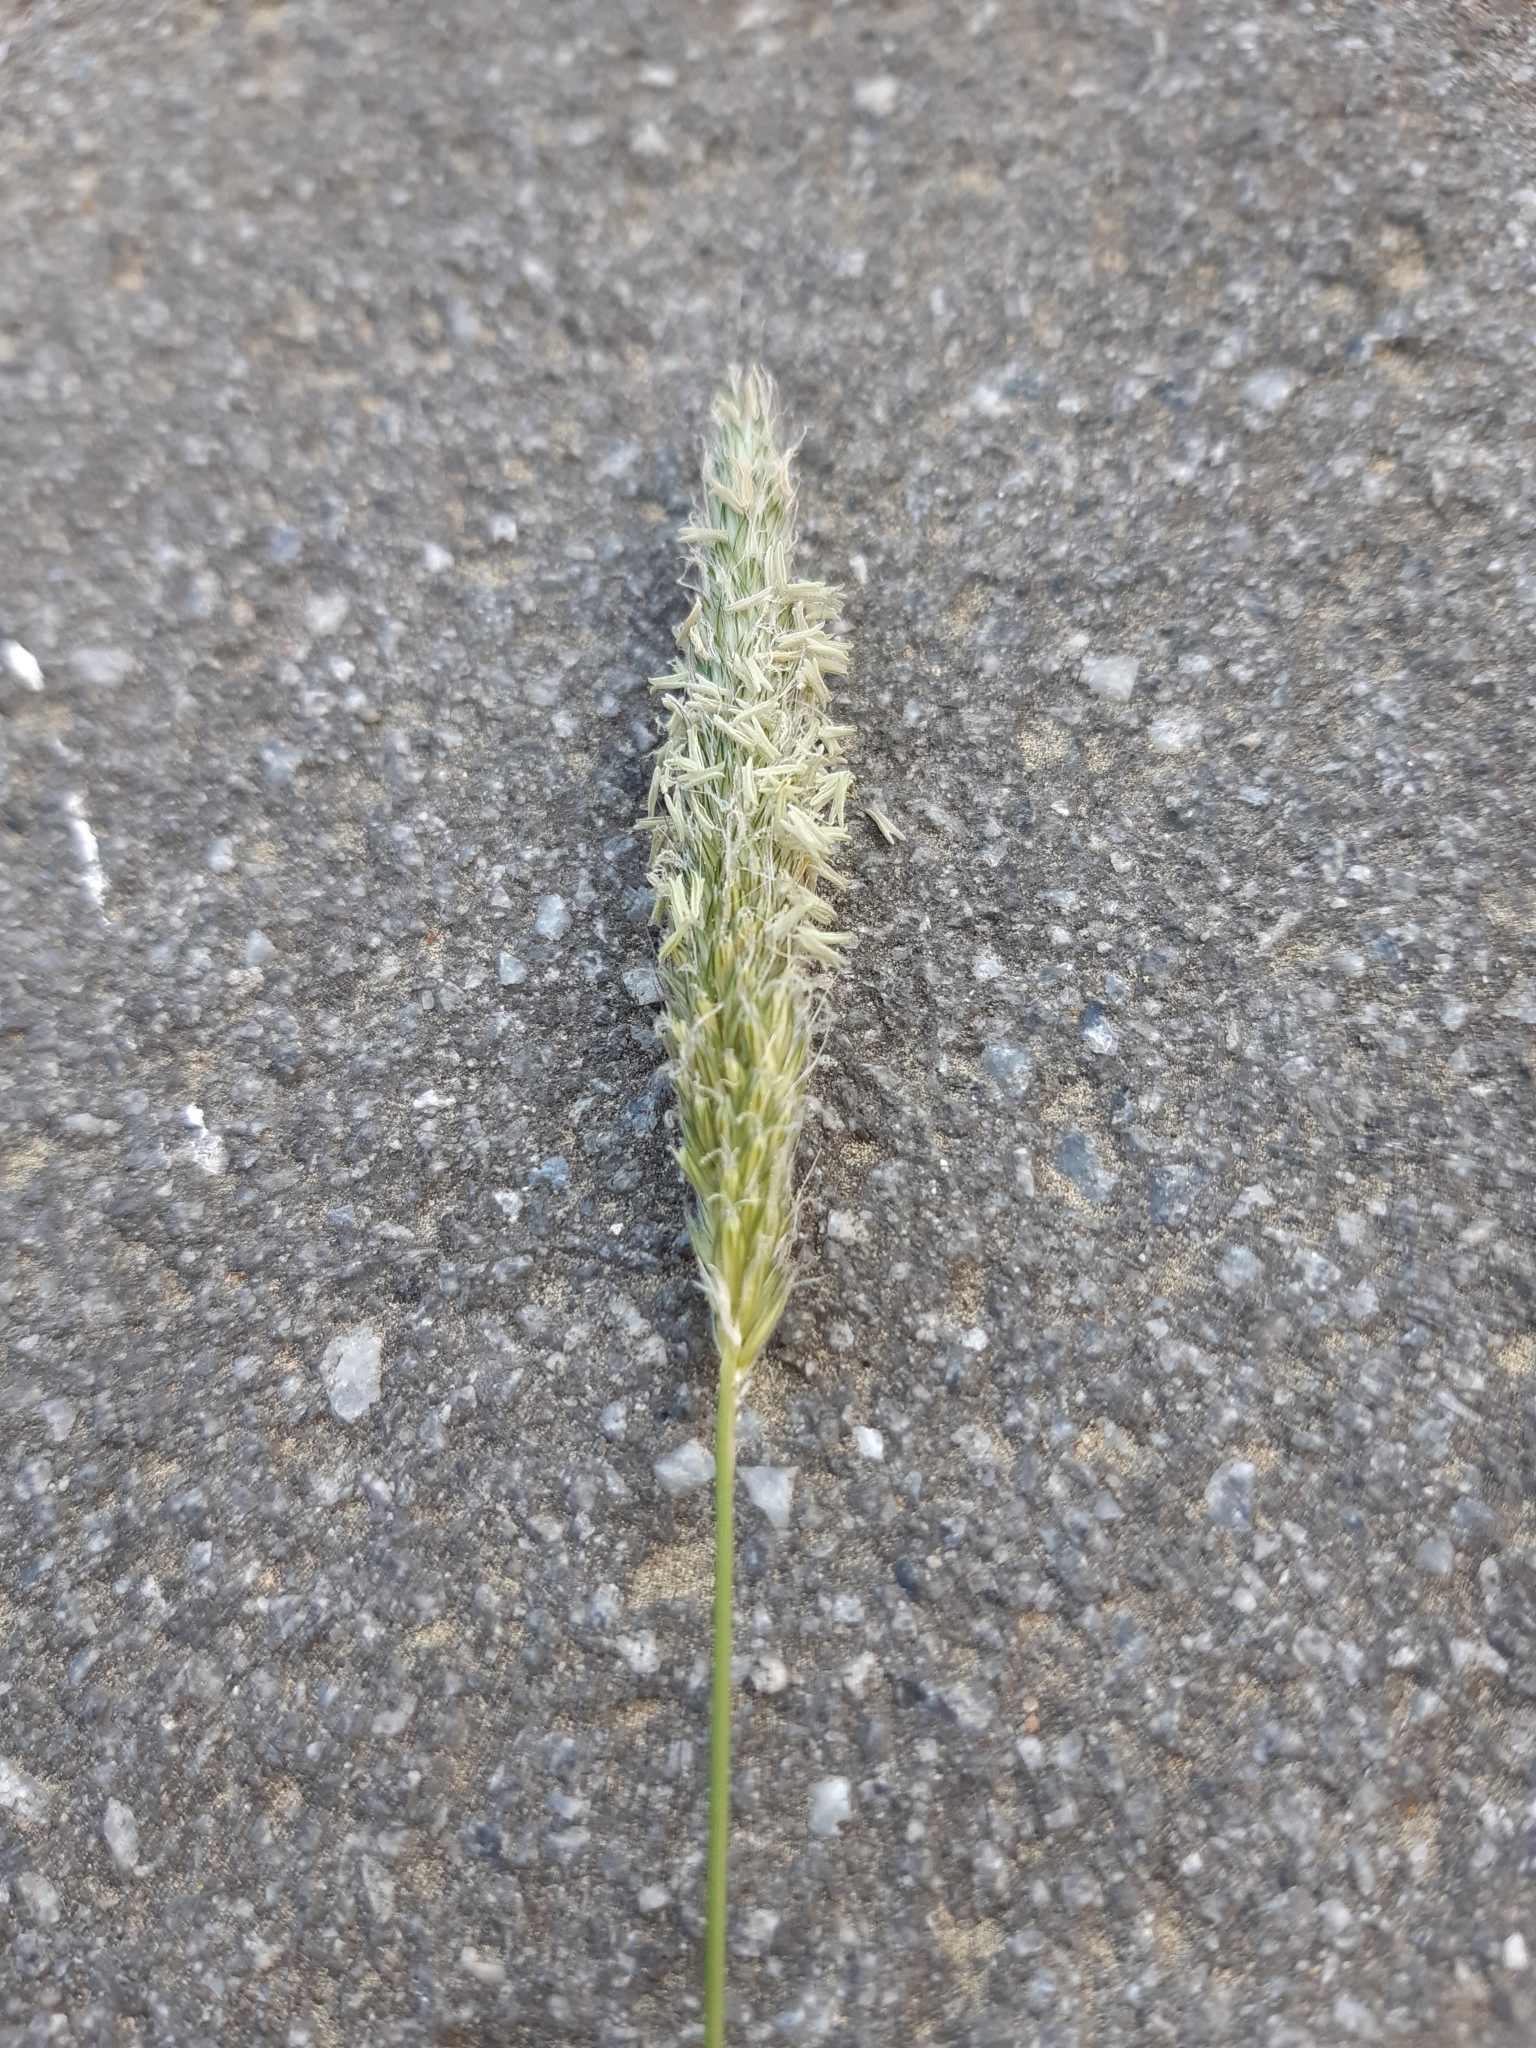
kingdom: Plantae
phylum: Tracheophyta
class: Liliopsida
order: Poales
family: Poaceae
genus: Alopecurus
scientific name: Alopecurus pratensis
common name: Meadow foxtail
